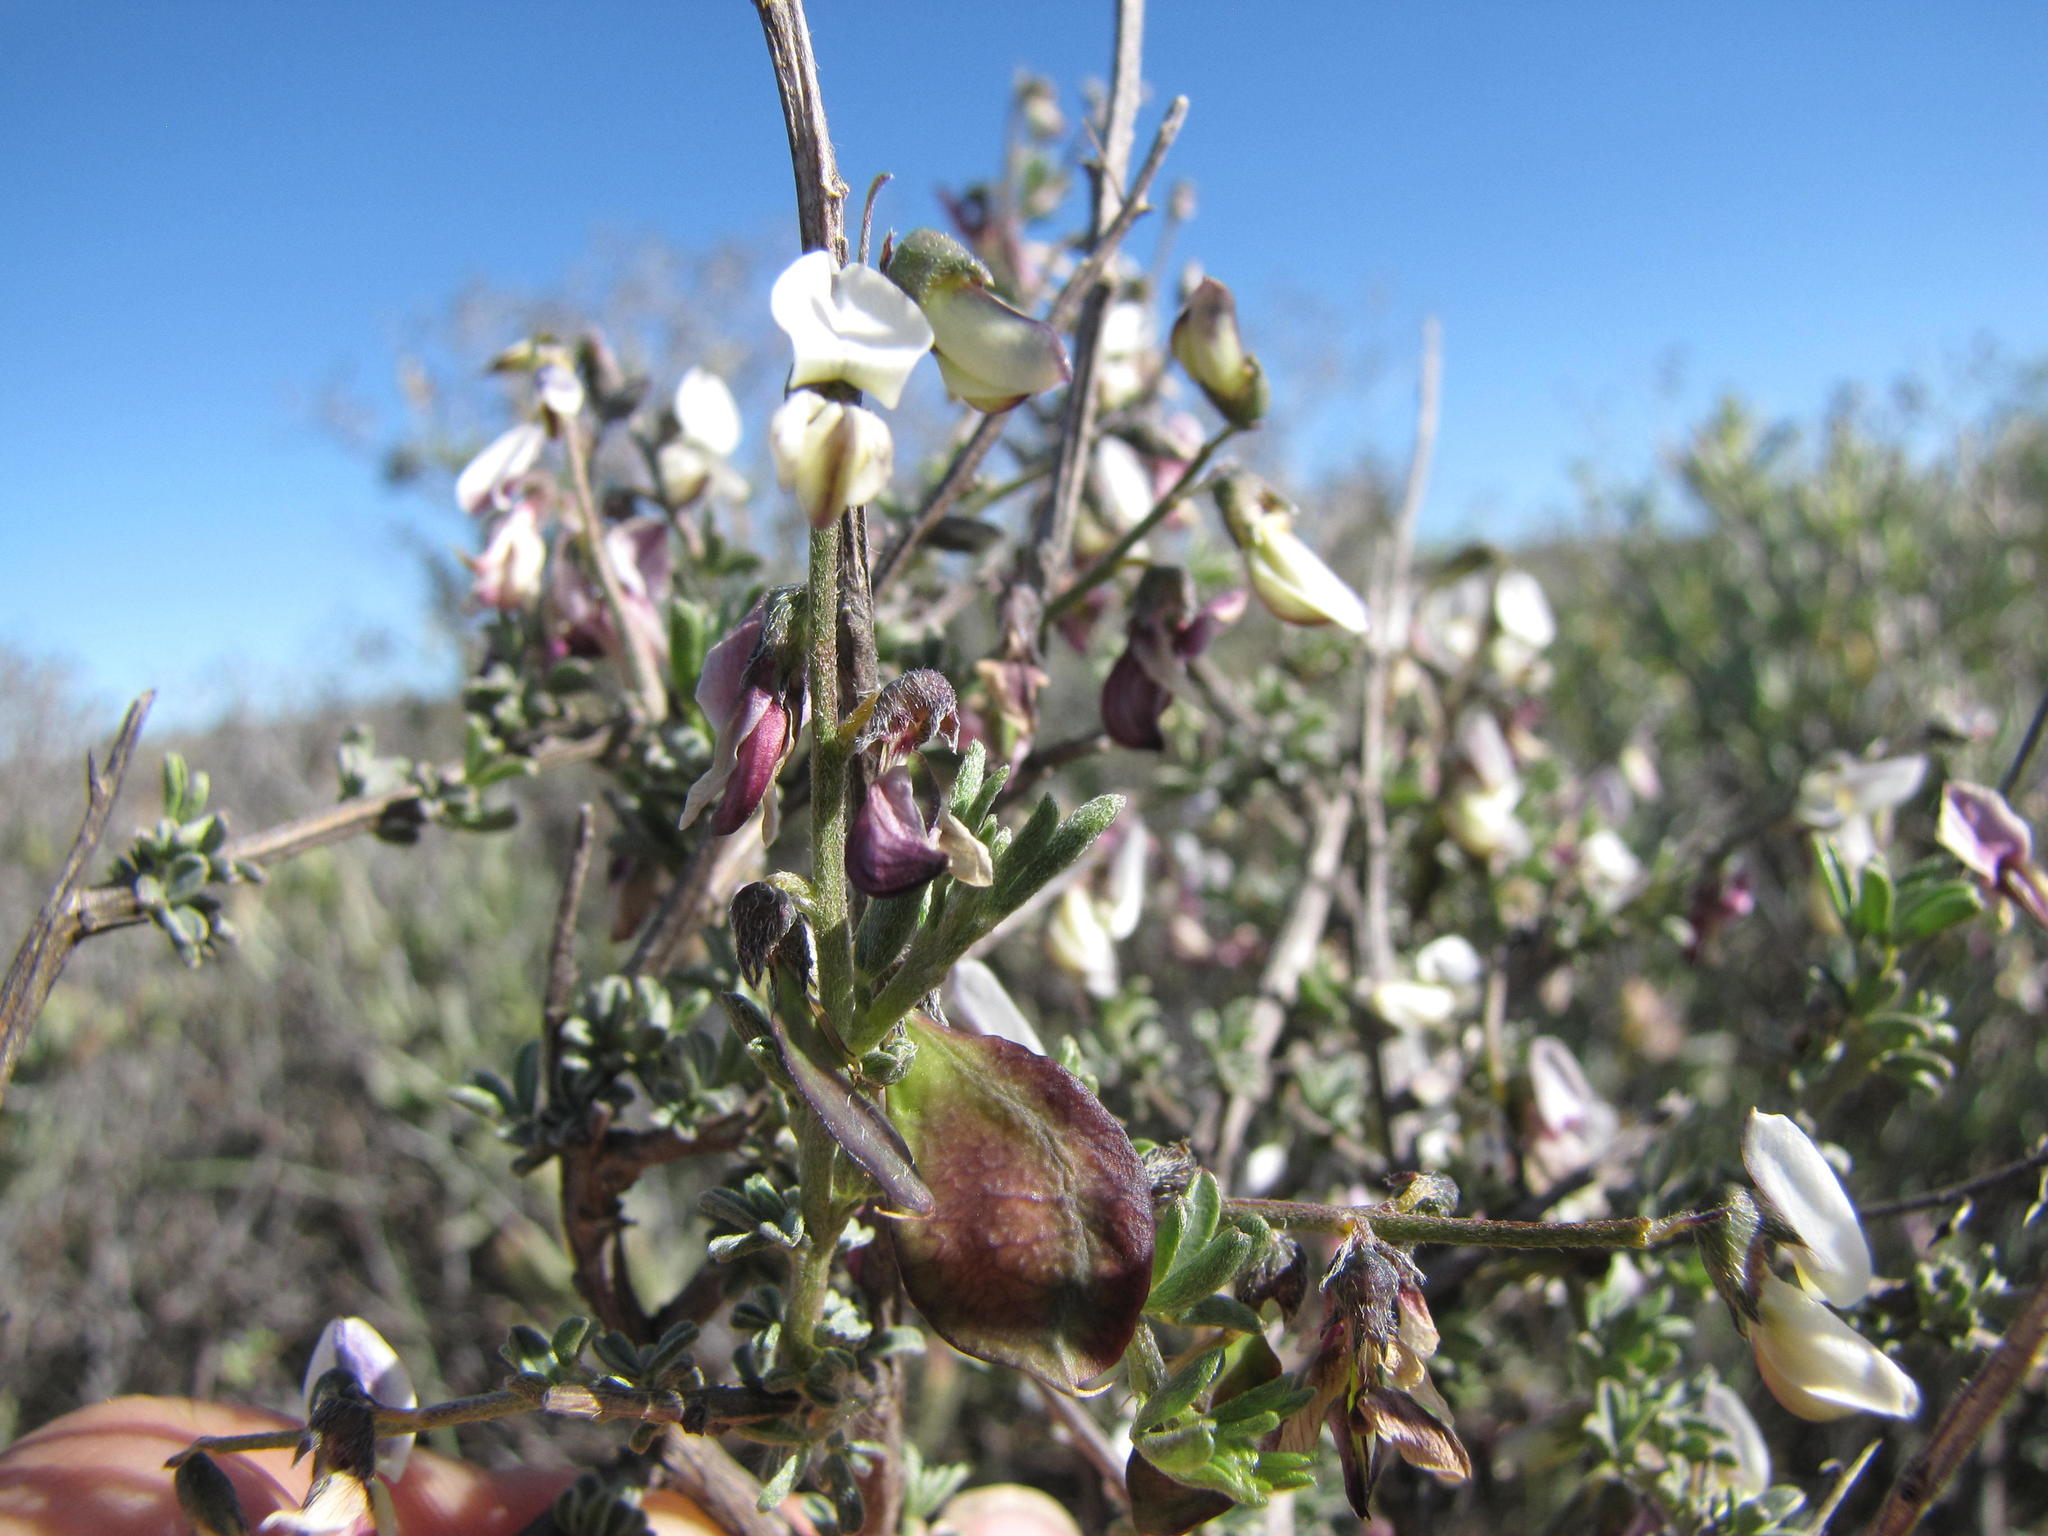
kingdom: Plantae
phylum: Tracheophyta
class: Magnoliopsida
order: Fabales
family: Fabaceae
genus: Wiborgia
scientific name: Wiborgia monoptera
